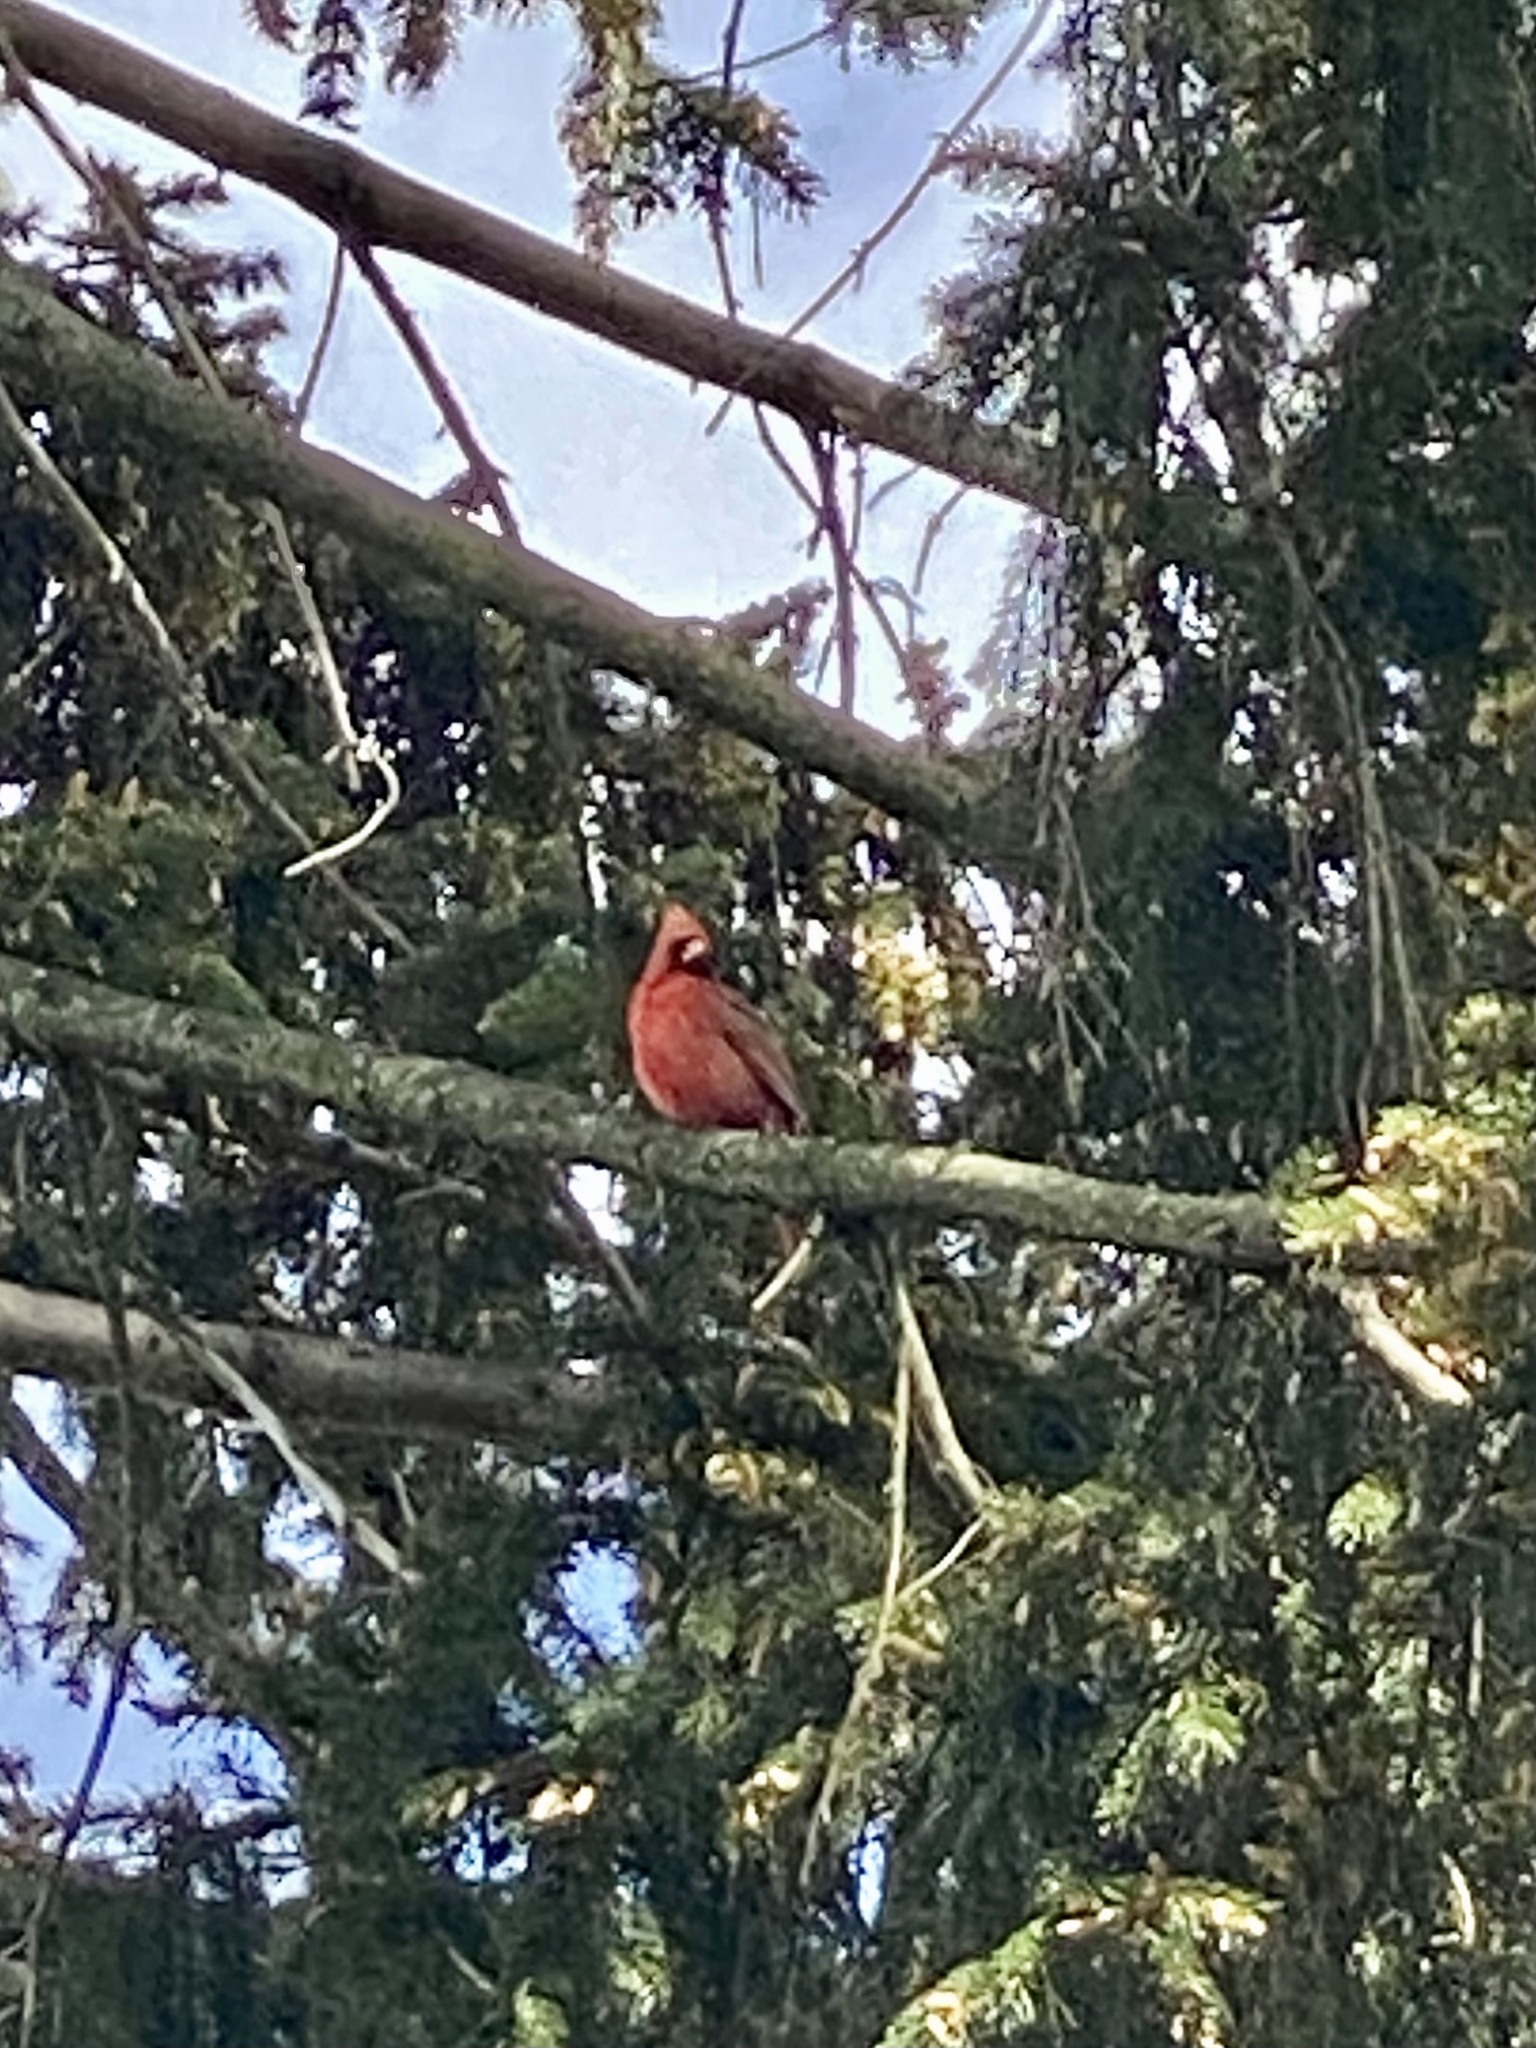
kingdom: Animalia
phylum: Chordata
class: Aves
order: Passeriformes
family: Cardinalidae
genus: Cardinalis
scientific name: Cardinalis cardinalis
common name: Northern cardinal
